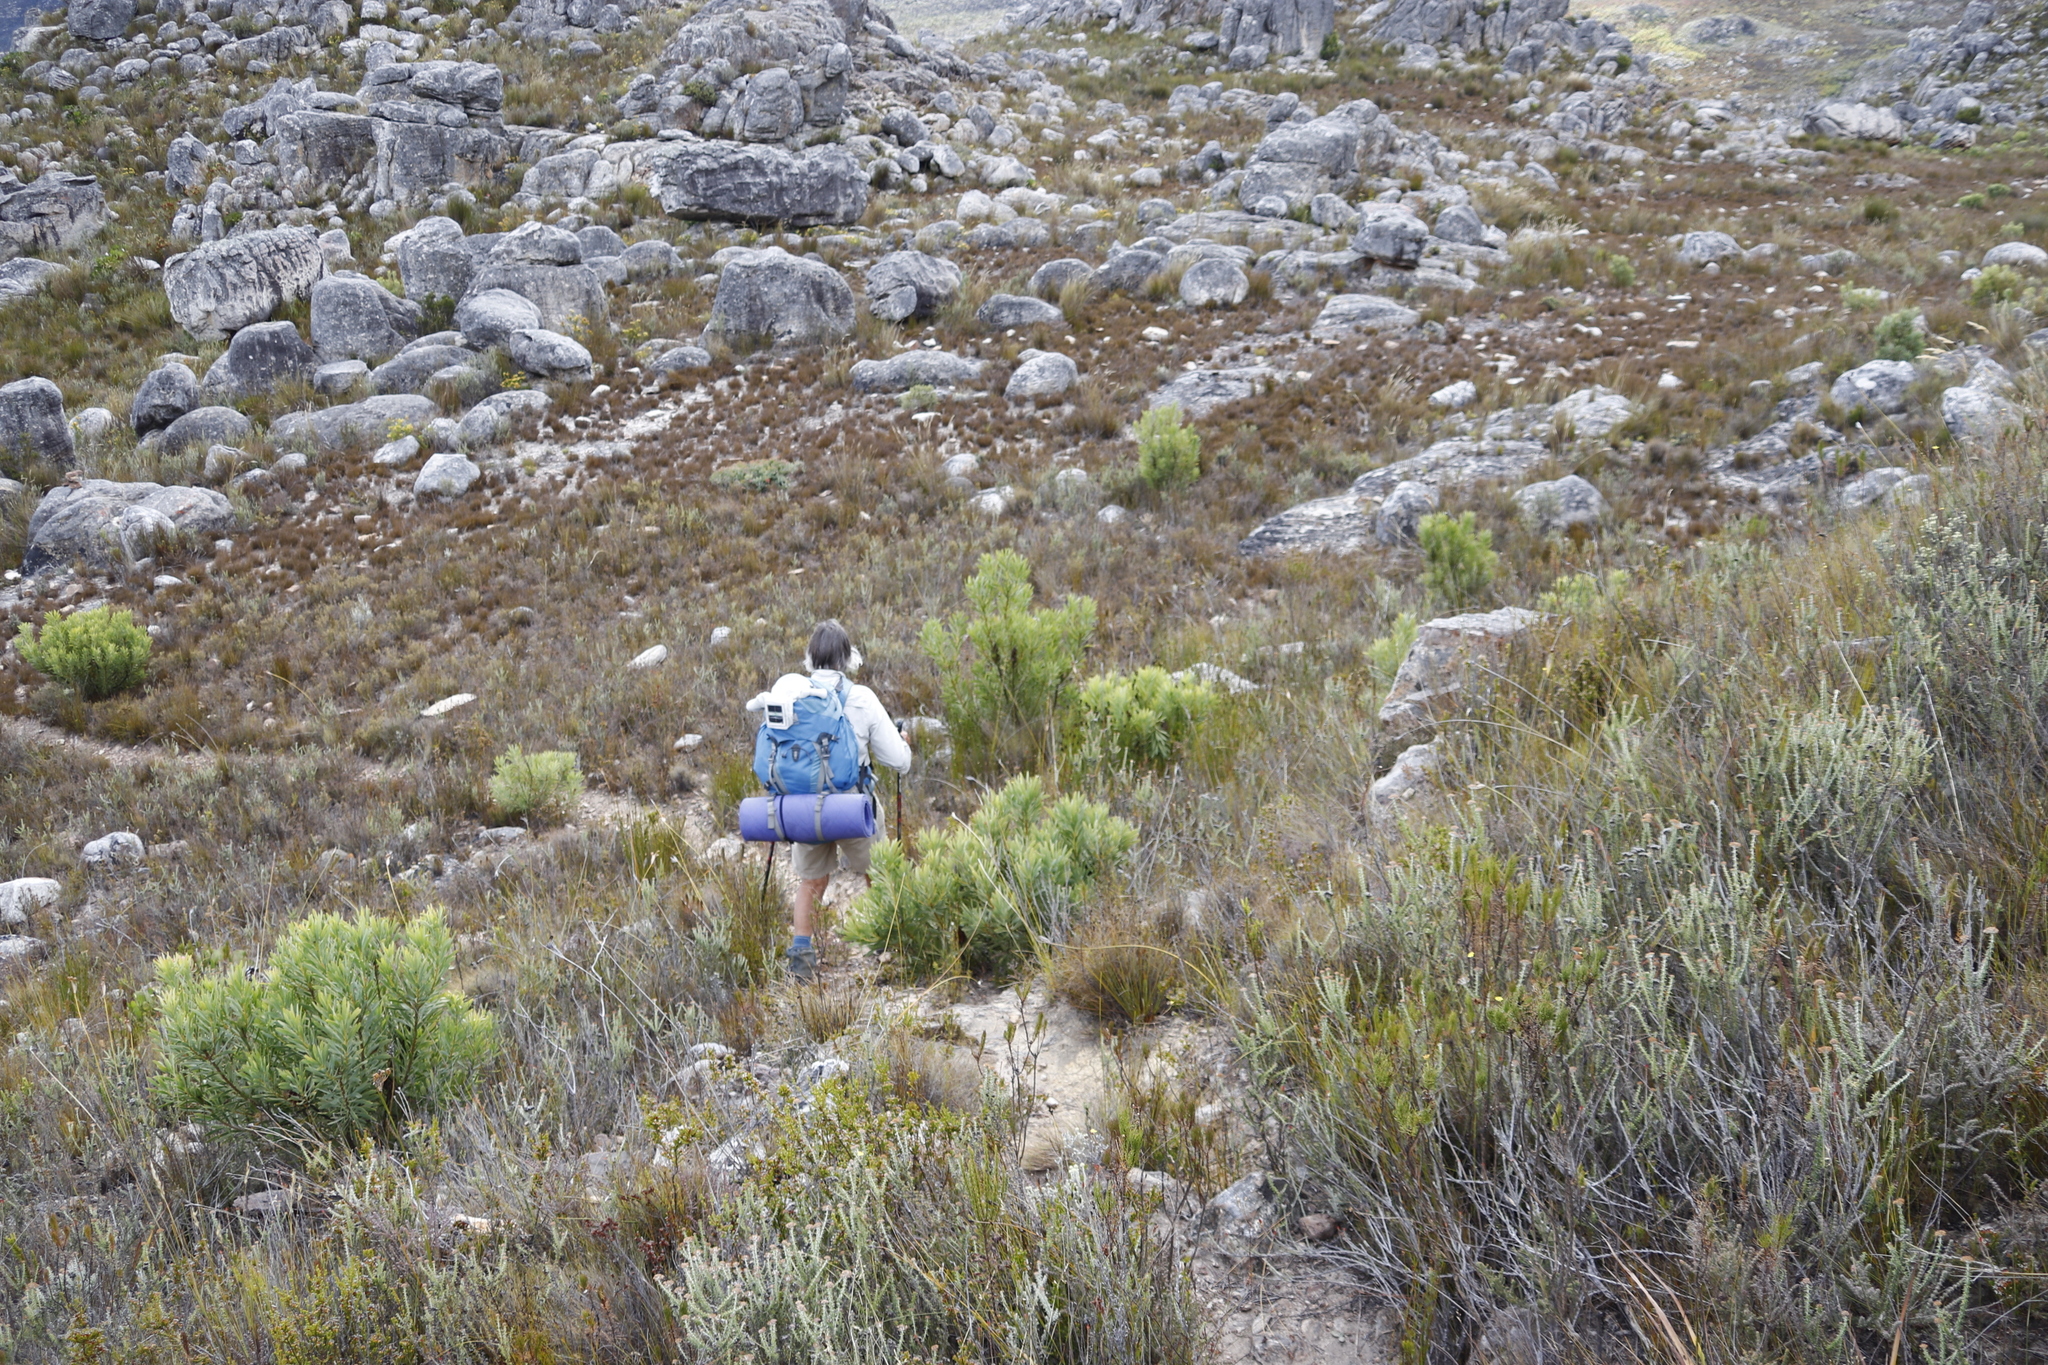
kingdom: Plantae
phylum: Tracheophyta
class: Magnoliopsida
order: Proteales
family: Proteaceae
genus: Protea
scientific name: Protea repens
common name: Sugarbush
